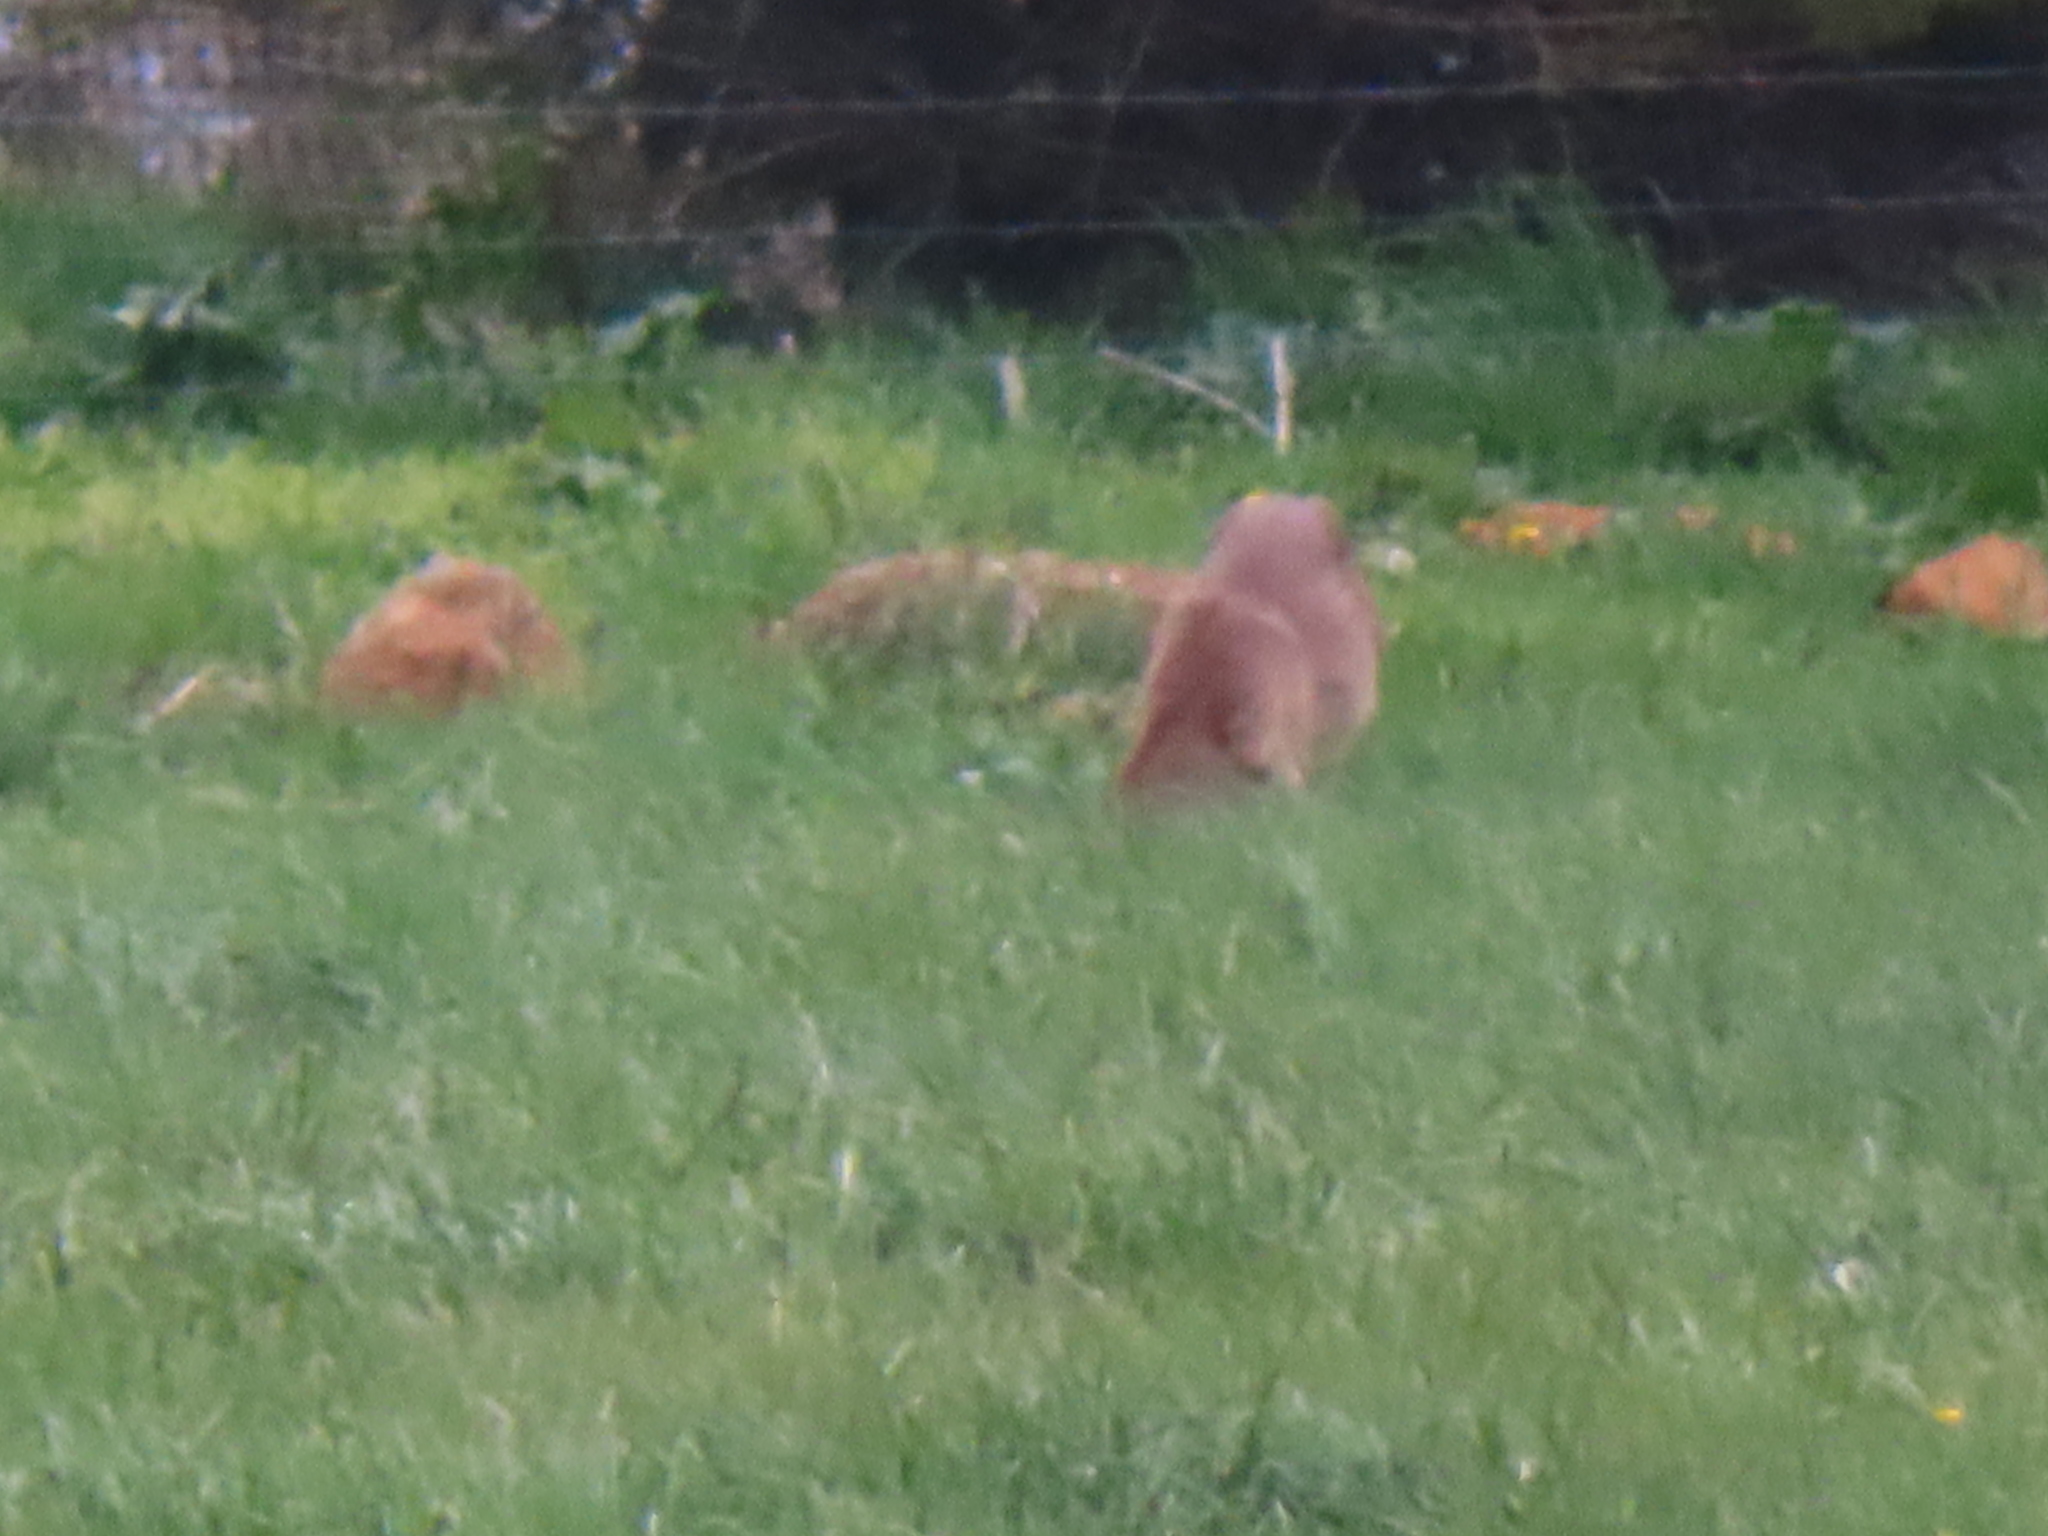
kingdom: Animalia
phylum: Chordata
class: Mammalia
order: Artiodactyla
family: Cervidae
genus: Odocoileus
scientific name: Odocoileus virginianus
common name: White-tailed deer
